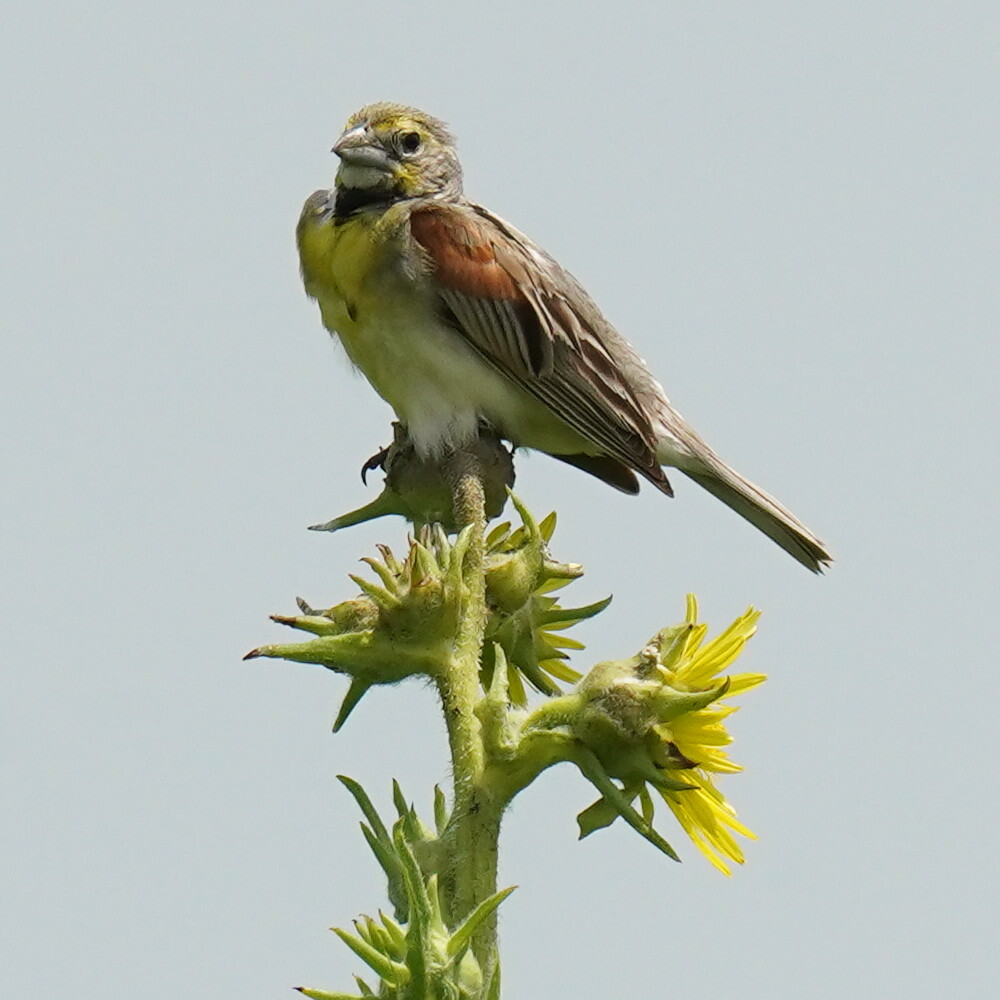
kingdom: Animalia
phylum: Chordata
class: Aves
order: Passeriformes
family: Cardinalidae
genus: Spiza
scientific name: Spiza americana
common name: Dickcissel
